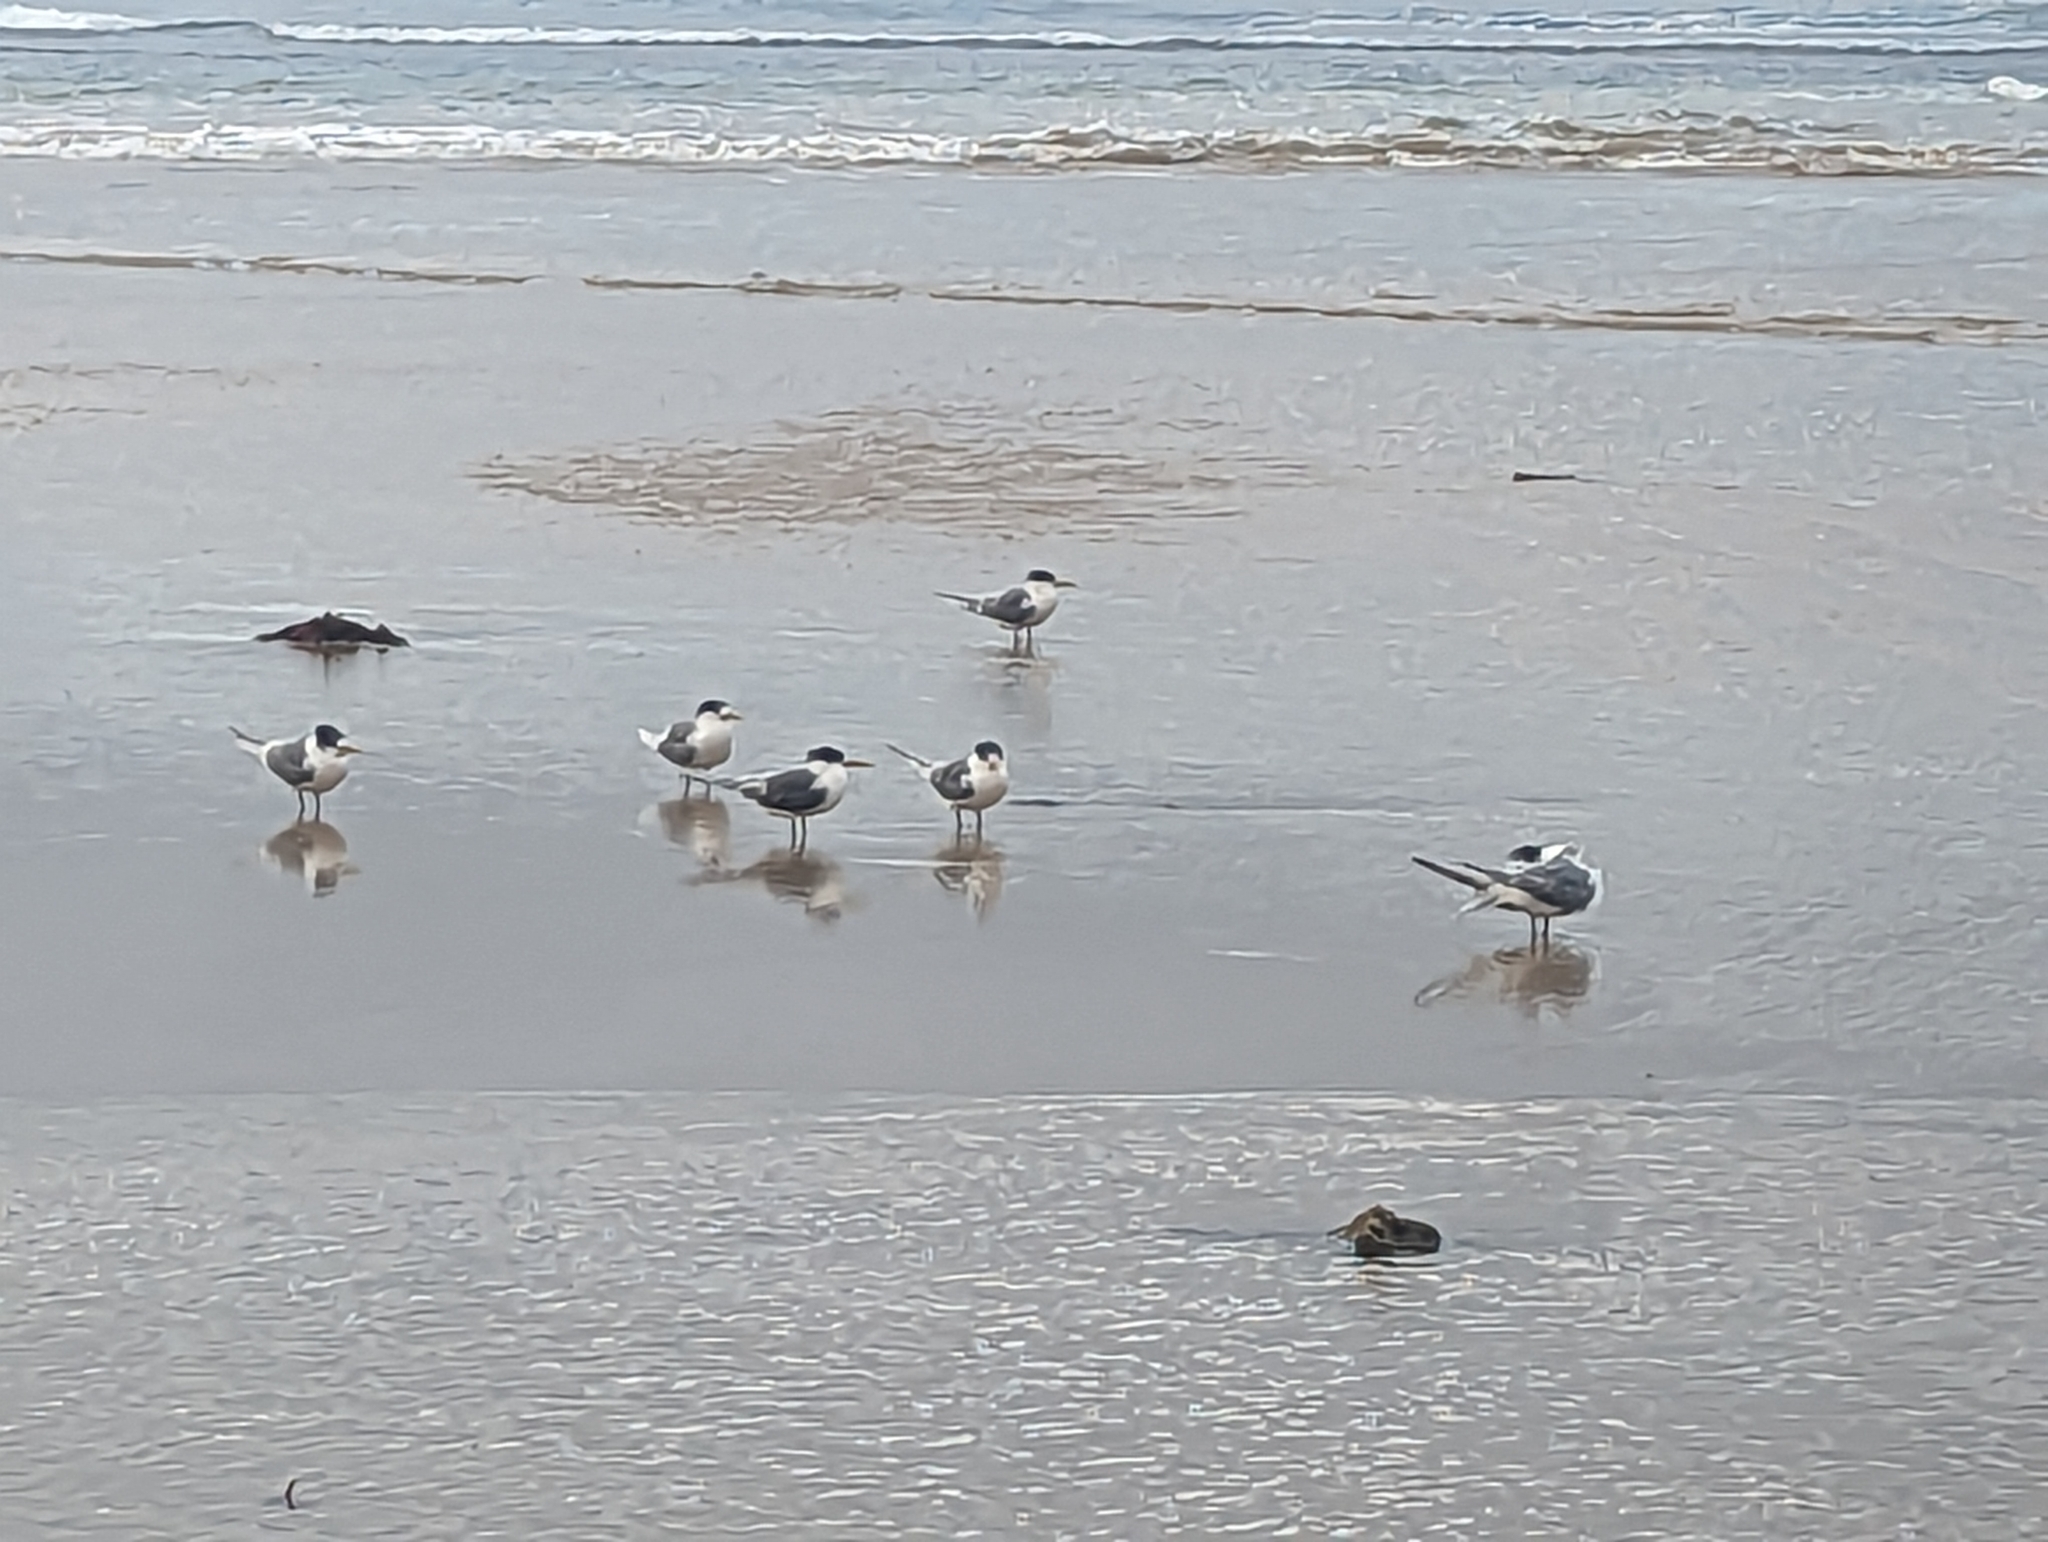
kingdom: Animalia
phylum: Chordata
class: Aves
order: Charadriiformes
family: Laridae
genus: Thalasseus
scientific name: Thalasseus bergii
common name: Greater crested tern
